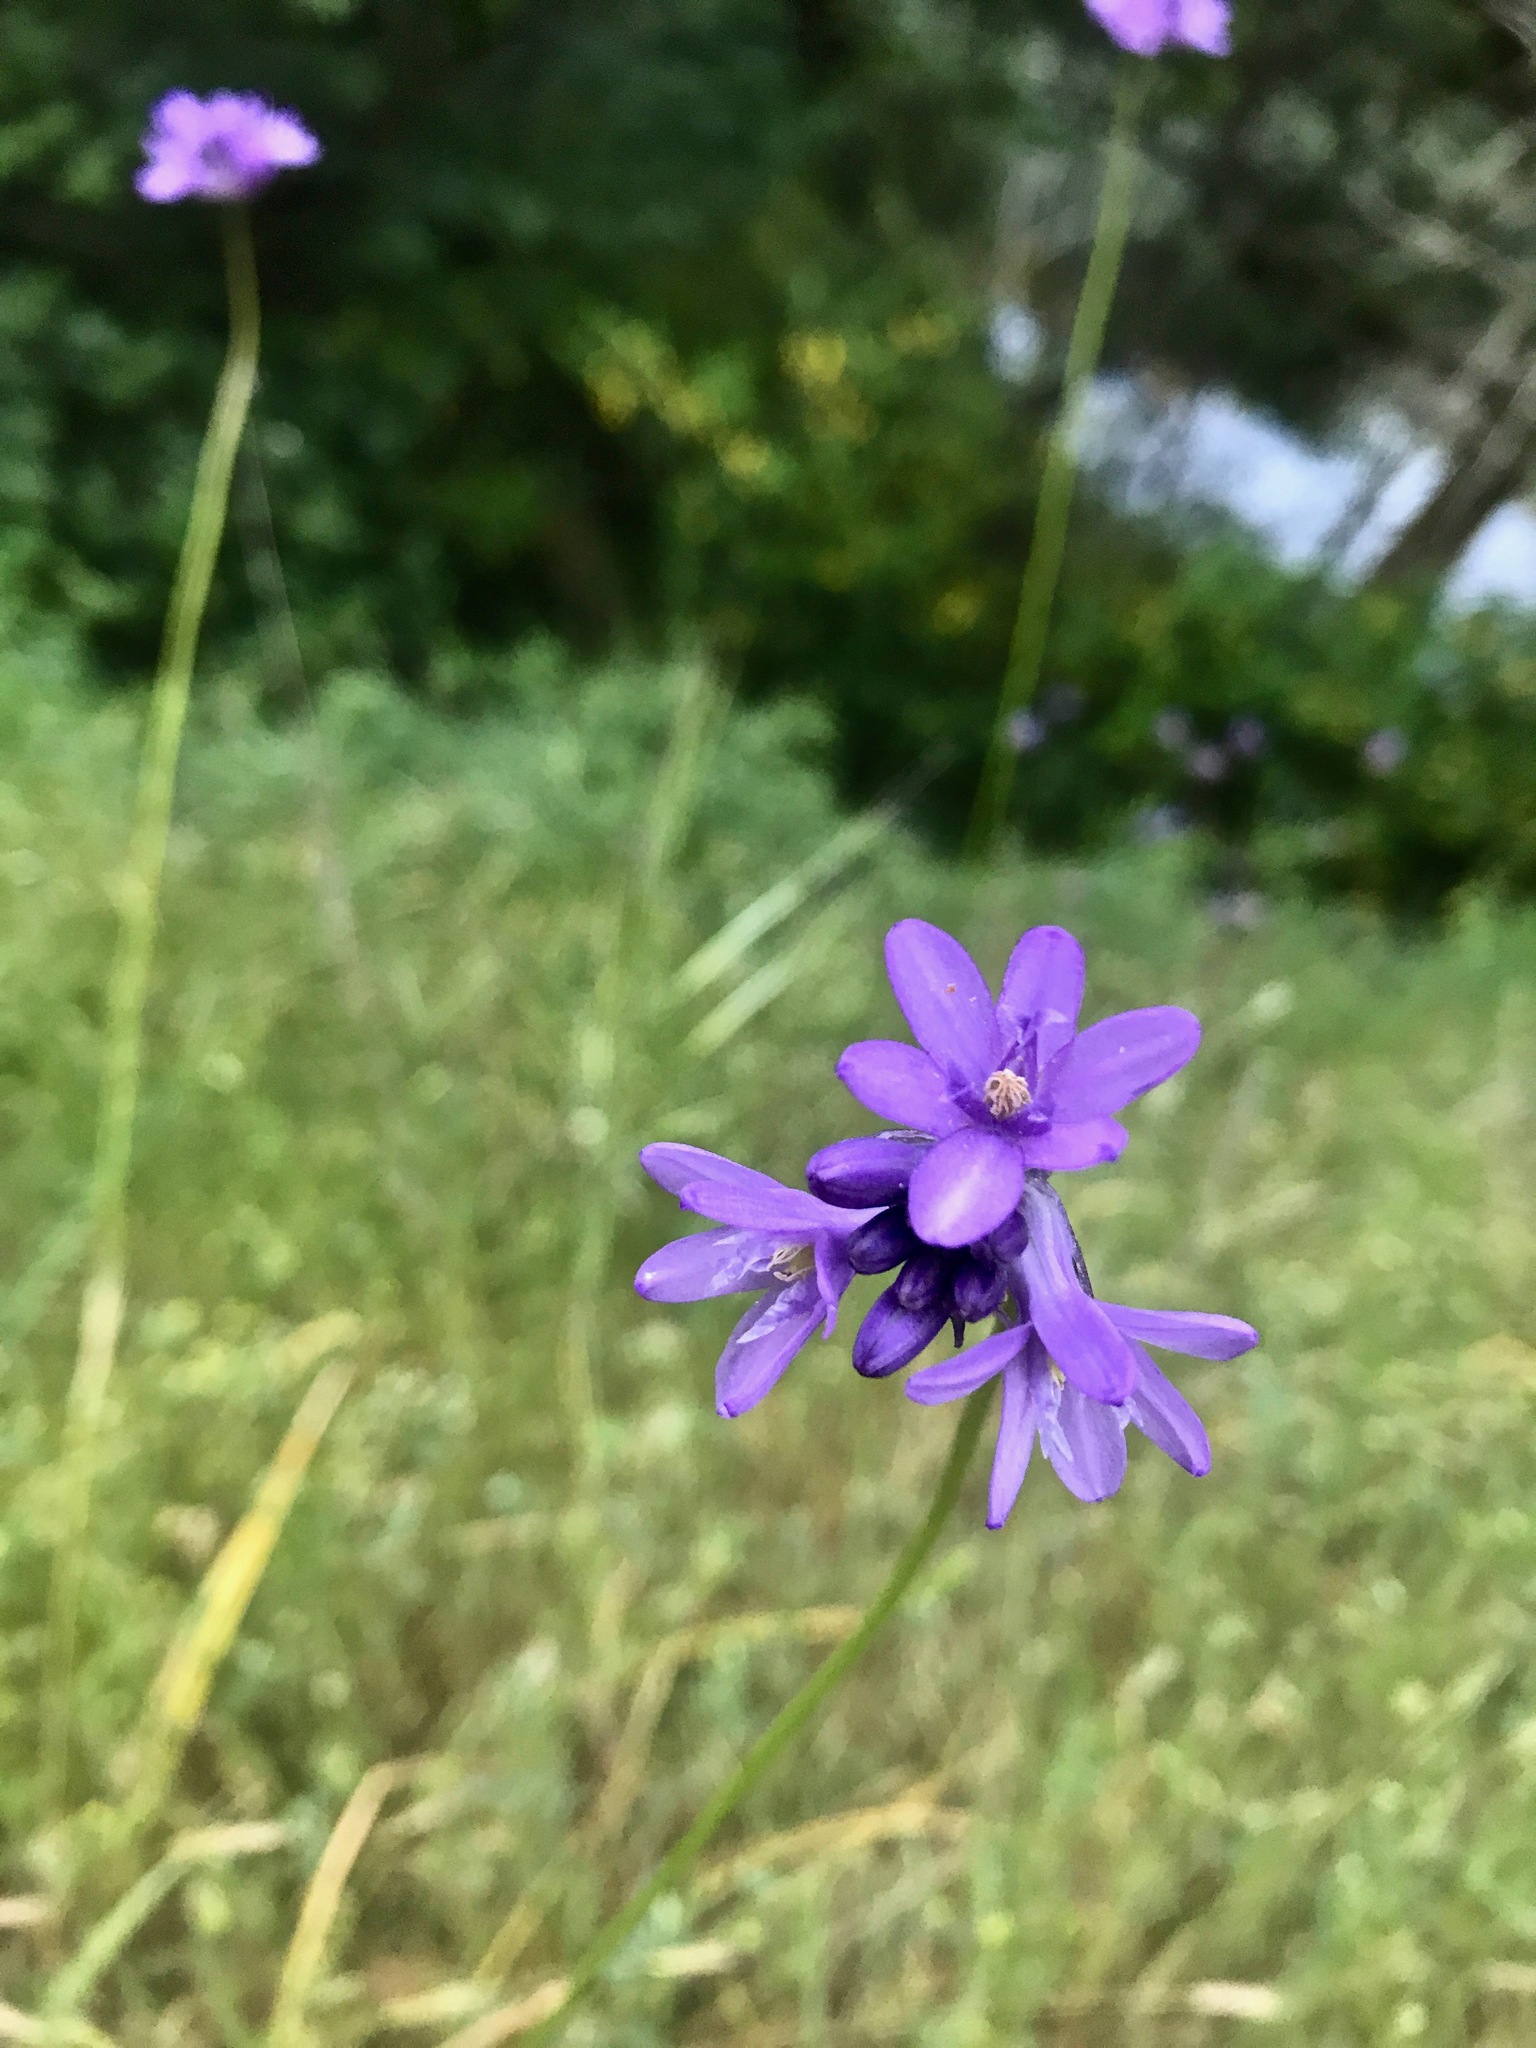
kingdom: Plantae
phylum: Tracheophyta
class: Liliopsida
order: Asparagales
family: Asparagaceae
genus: Dichelostemma
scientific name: Dichelostemma congestum
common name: Fork-tooth ookow
